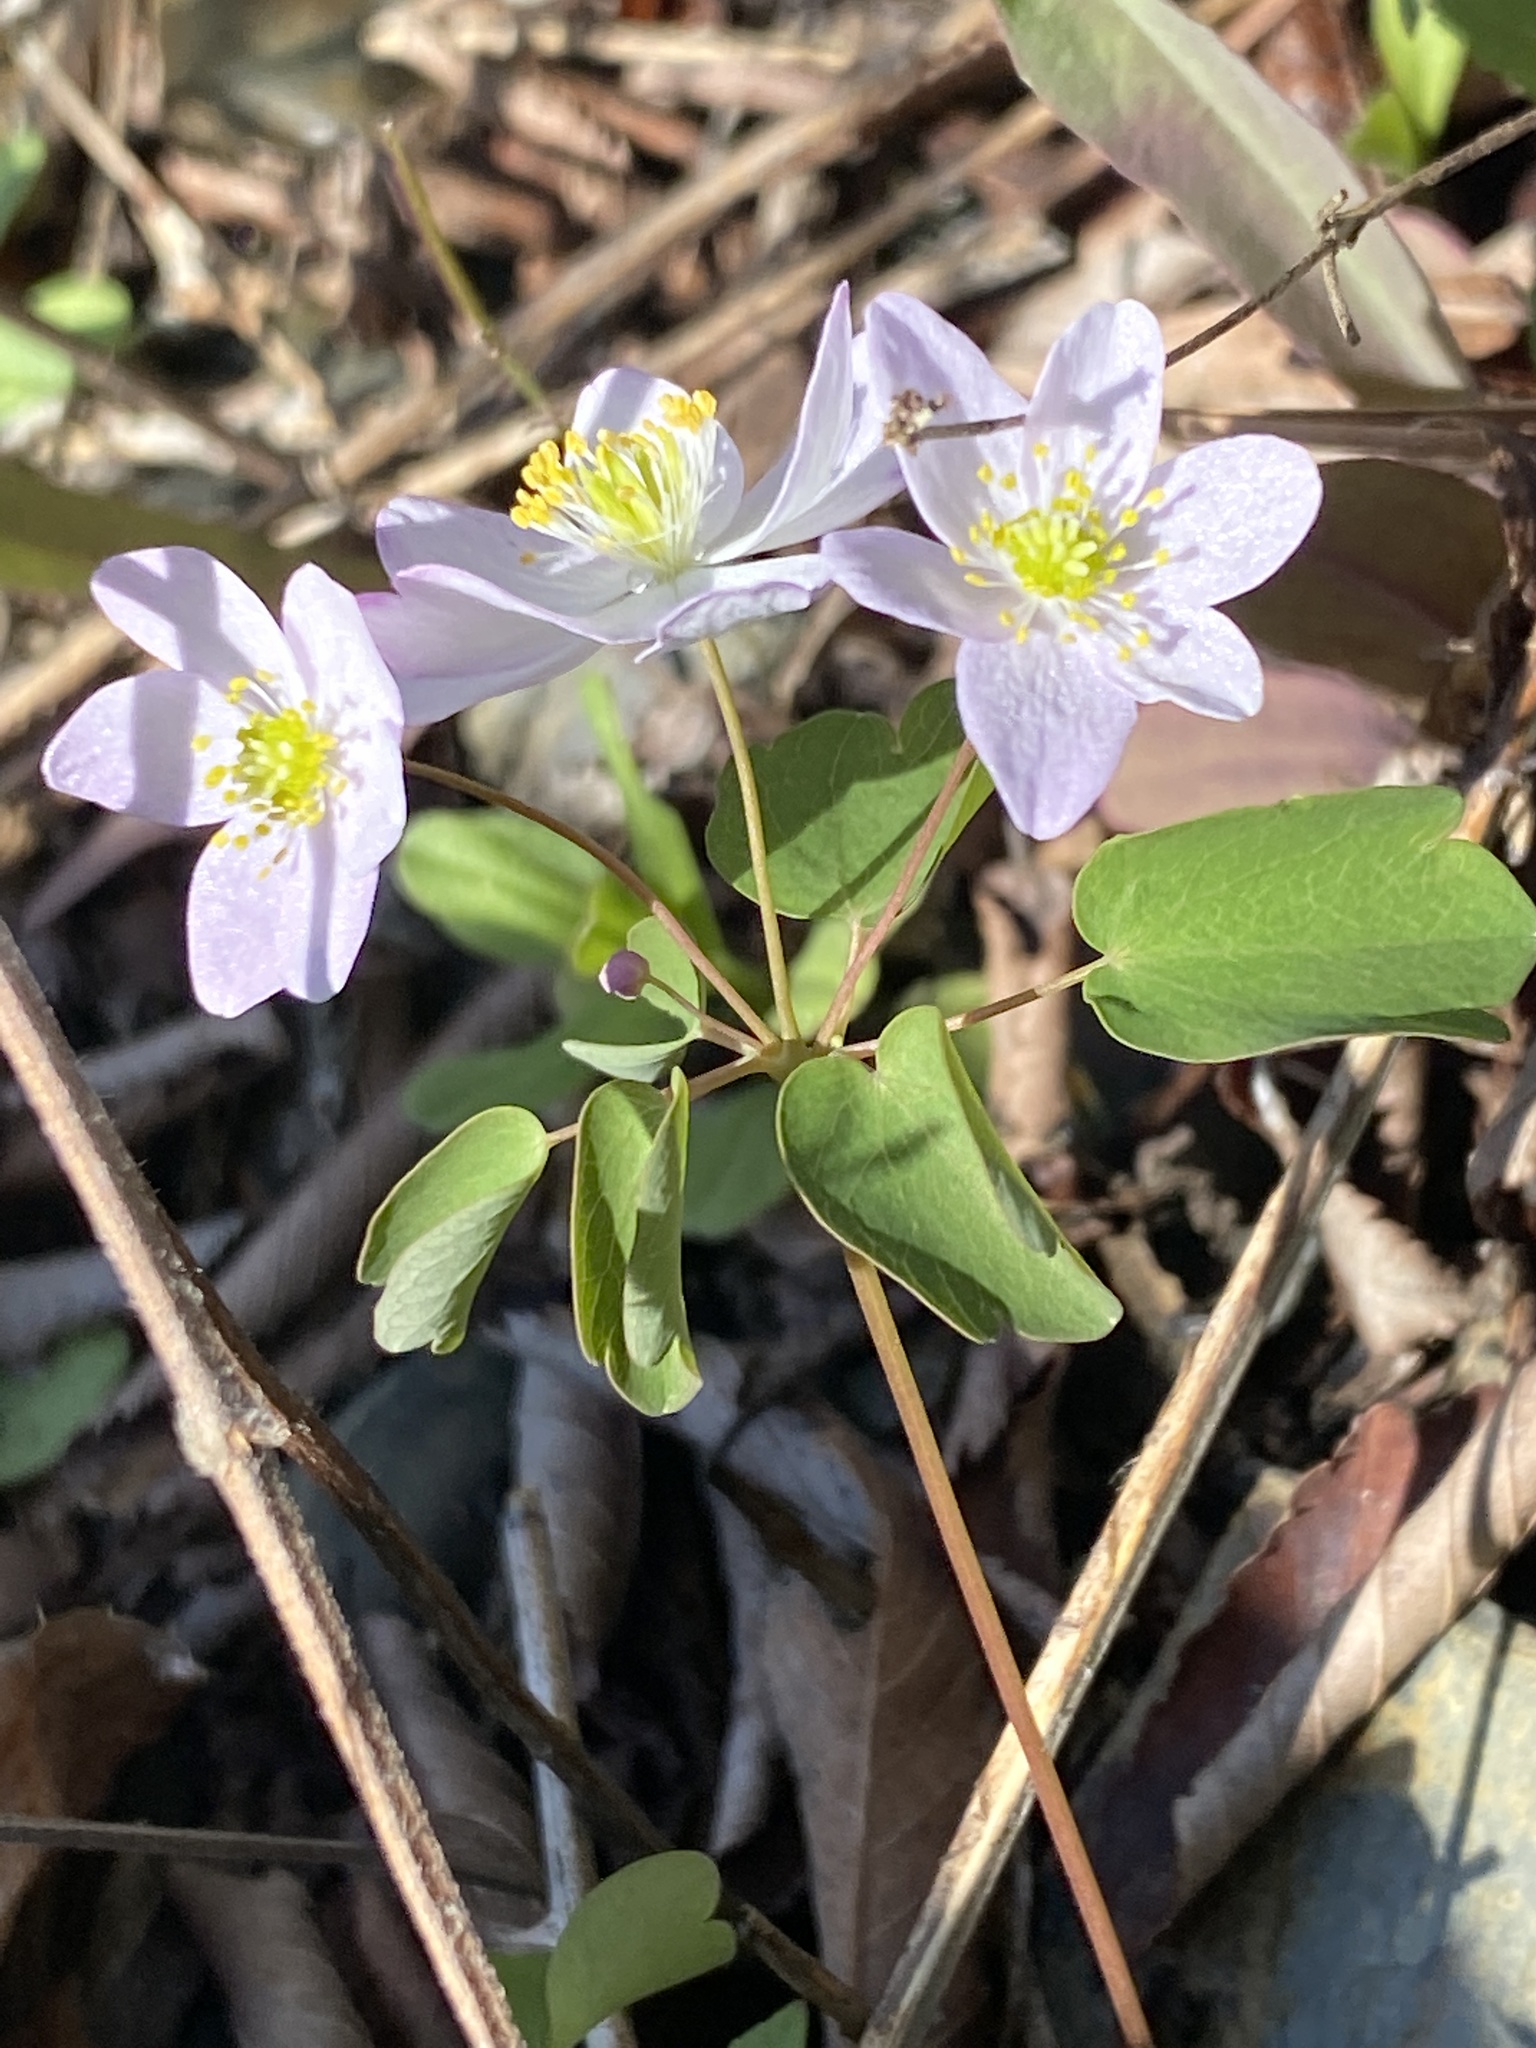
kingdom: Plantae
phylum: Tracheophyta
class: Magnoliopsida
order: Ranunculales
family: Ranunculaceae
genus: Thalictrum
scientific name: Thalictrum thalictroides
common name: Rue-anemone
